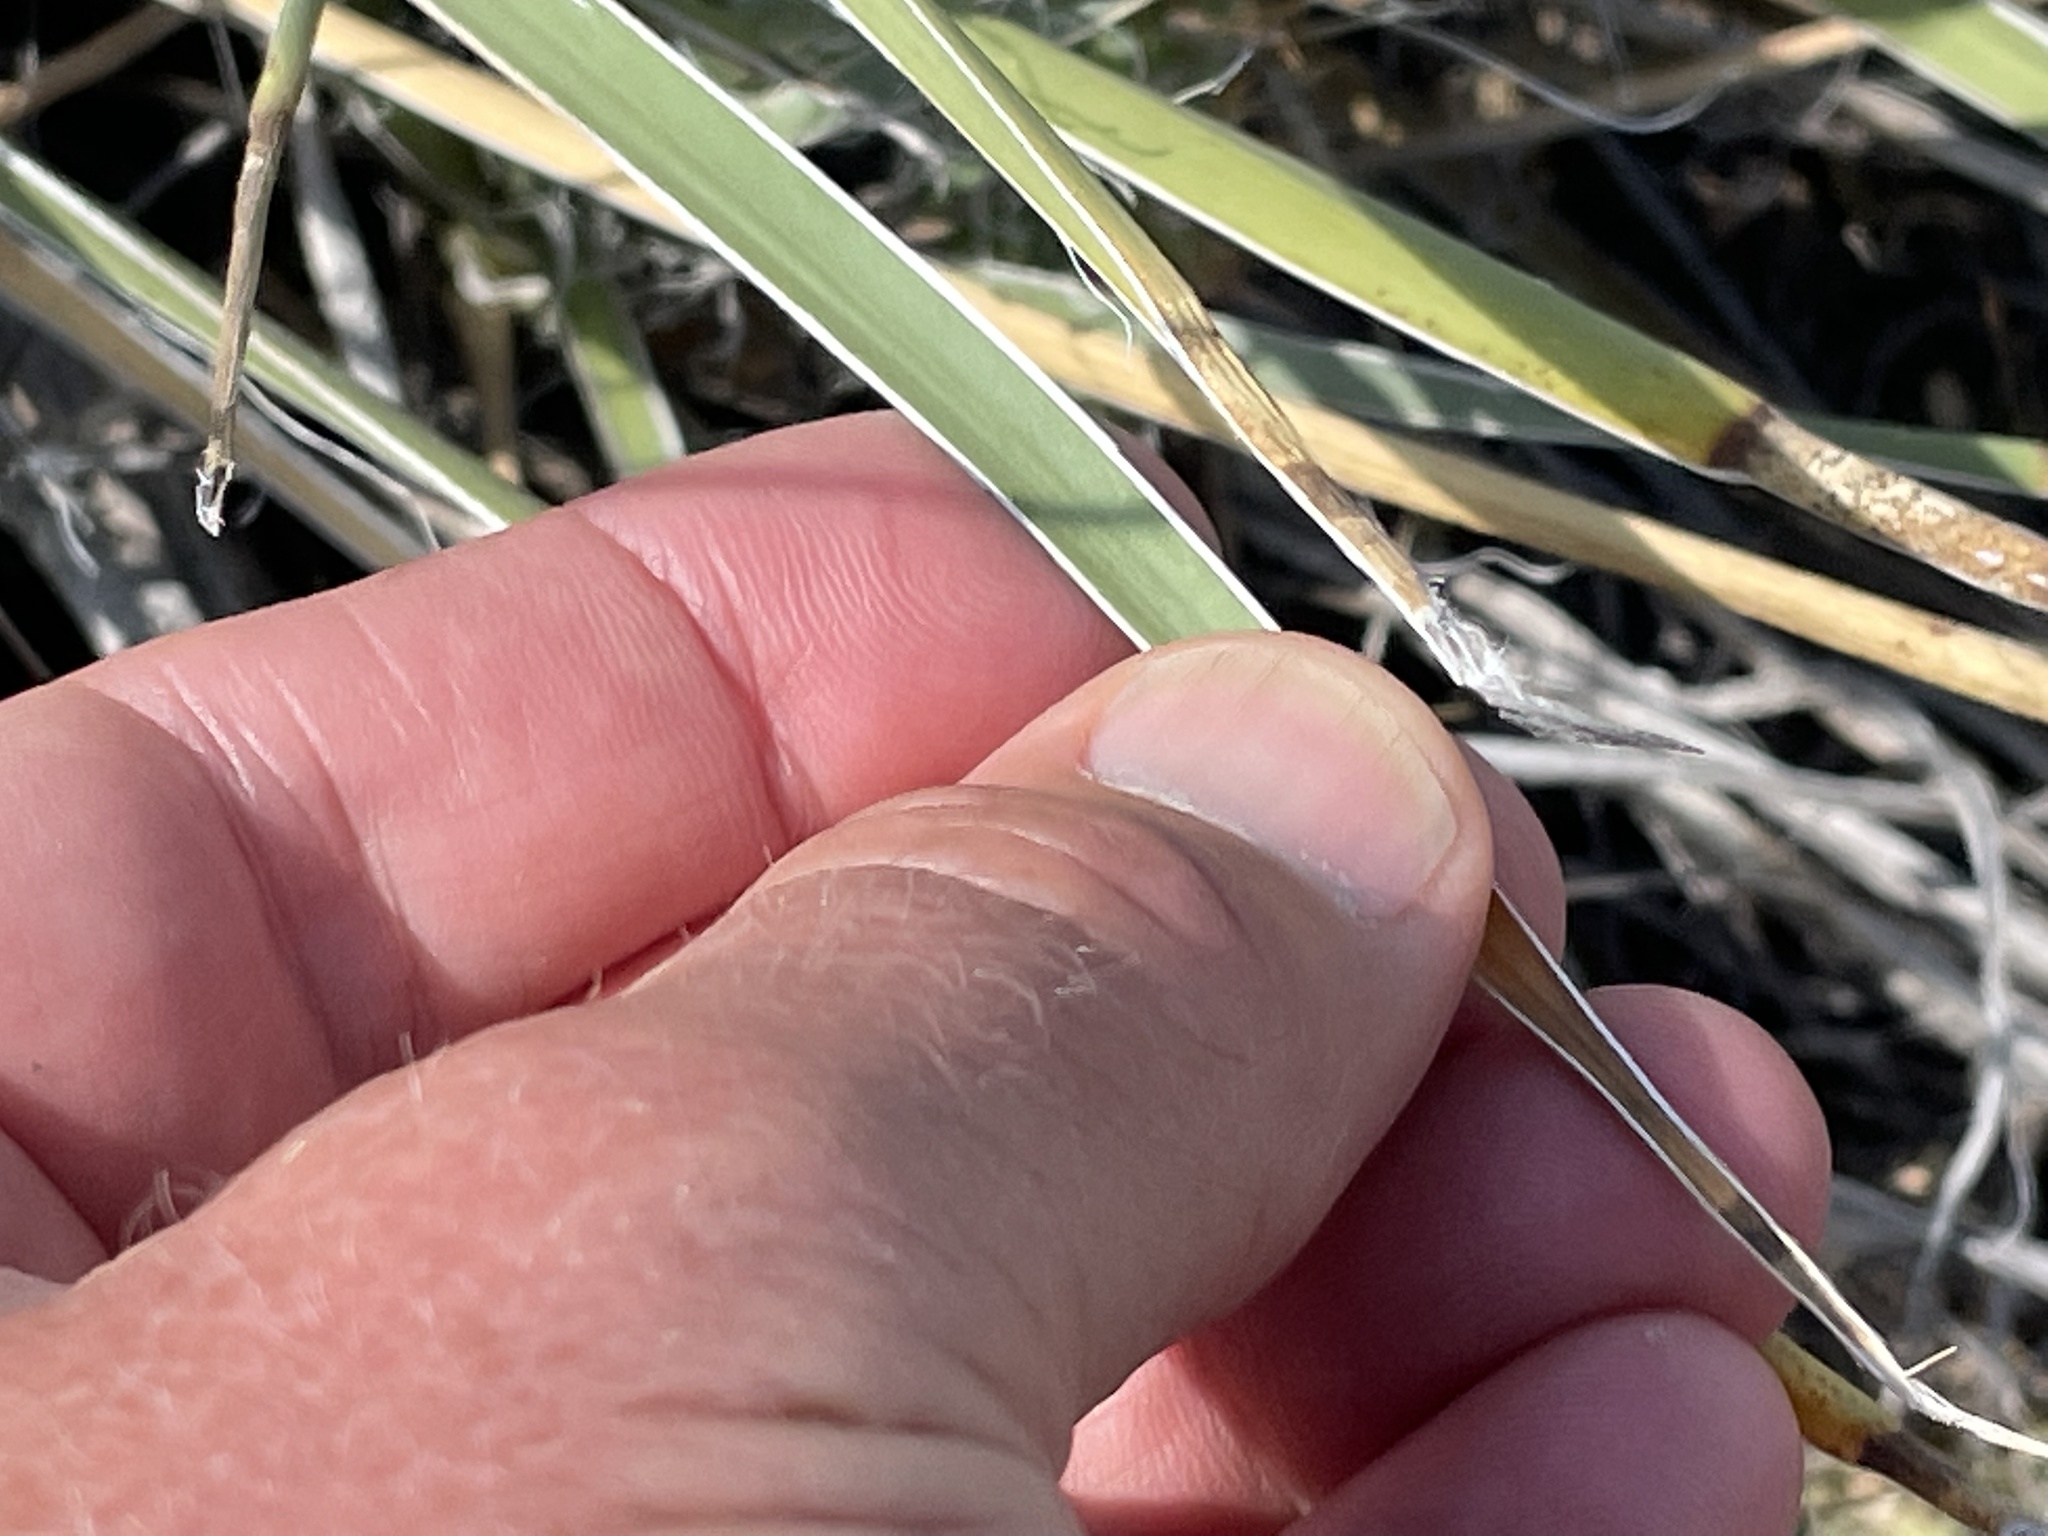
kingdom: Plantae
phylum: Tracheophyta
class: Liliopsida
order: Asparagales
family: Asparagaceae
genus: Yucca
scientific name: Yucca glauca
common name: Great plains yucca
